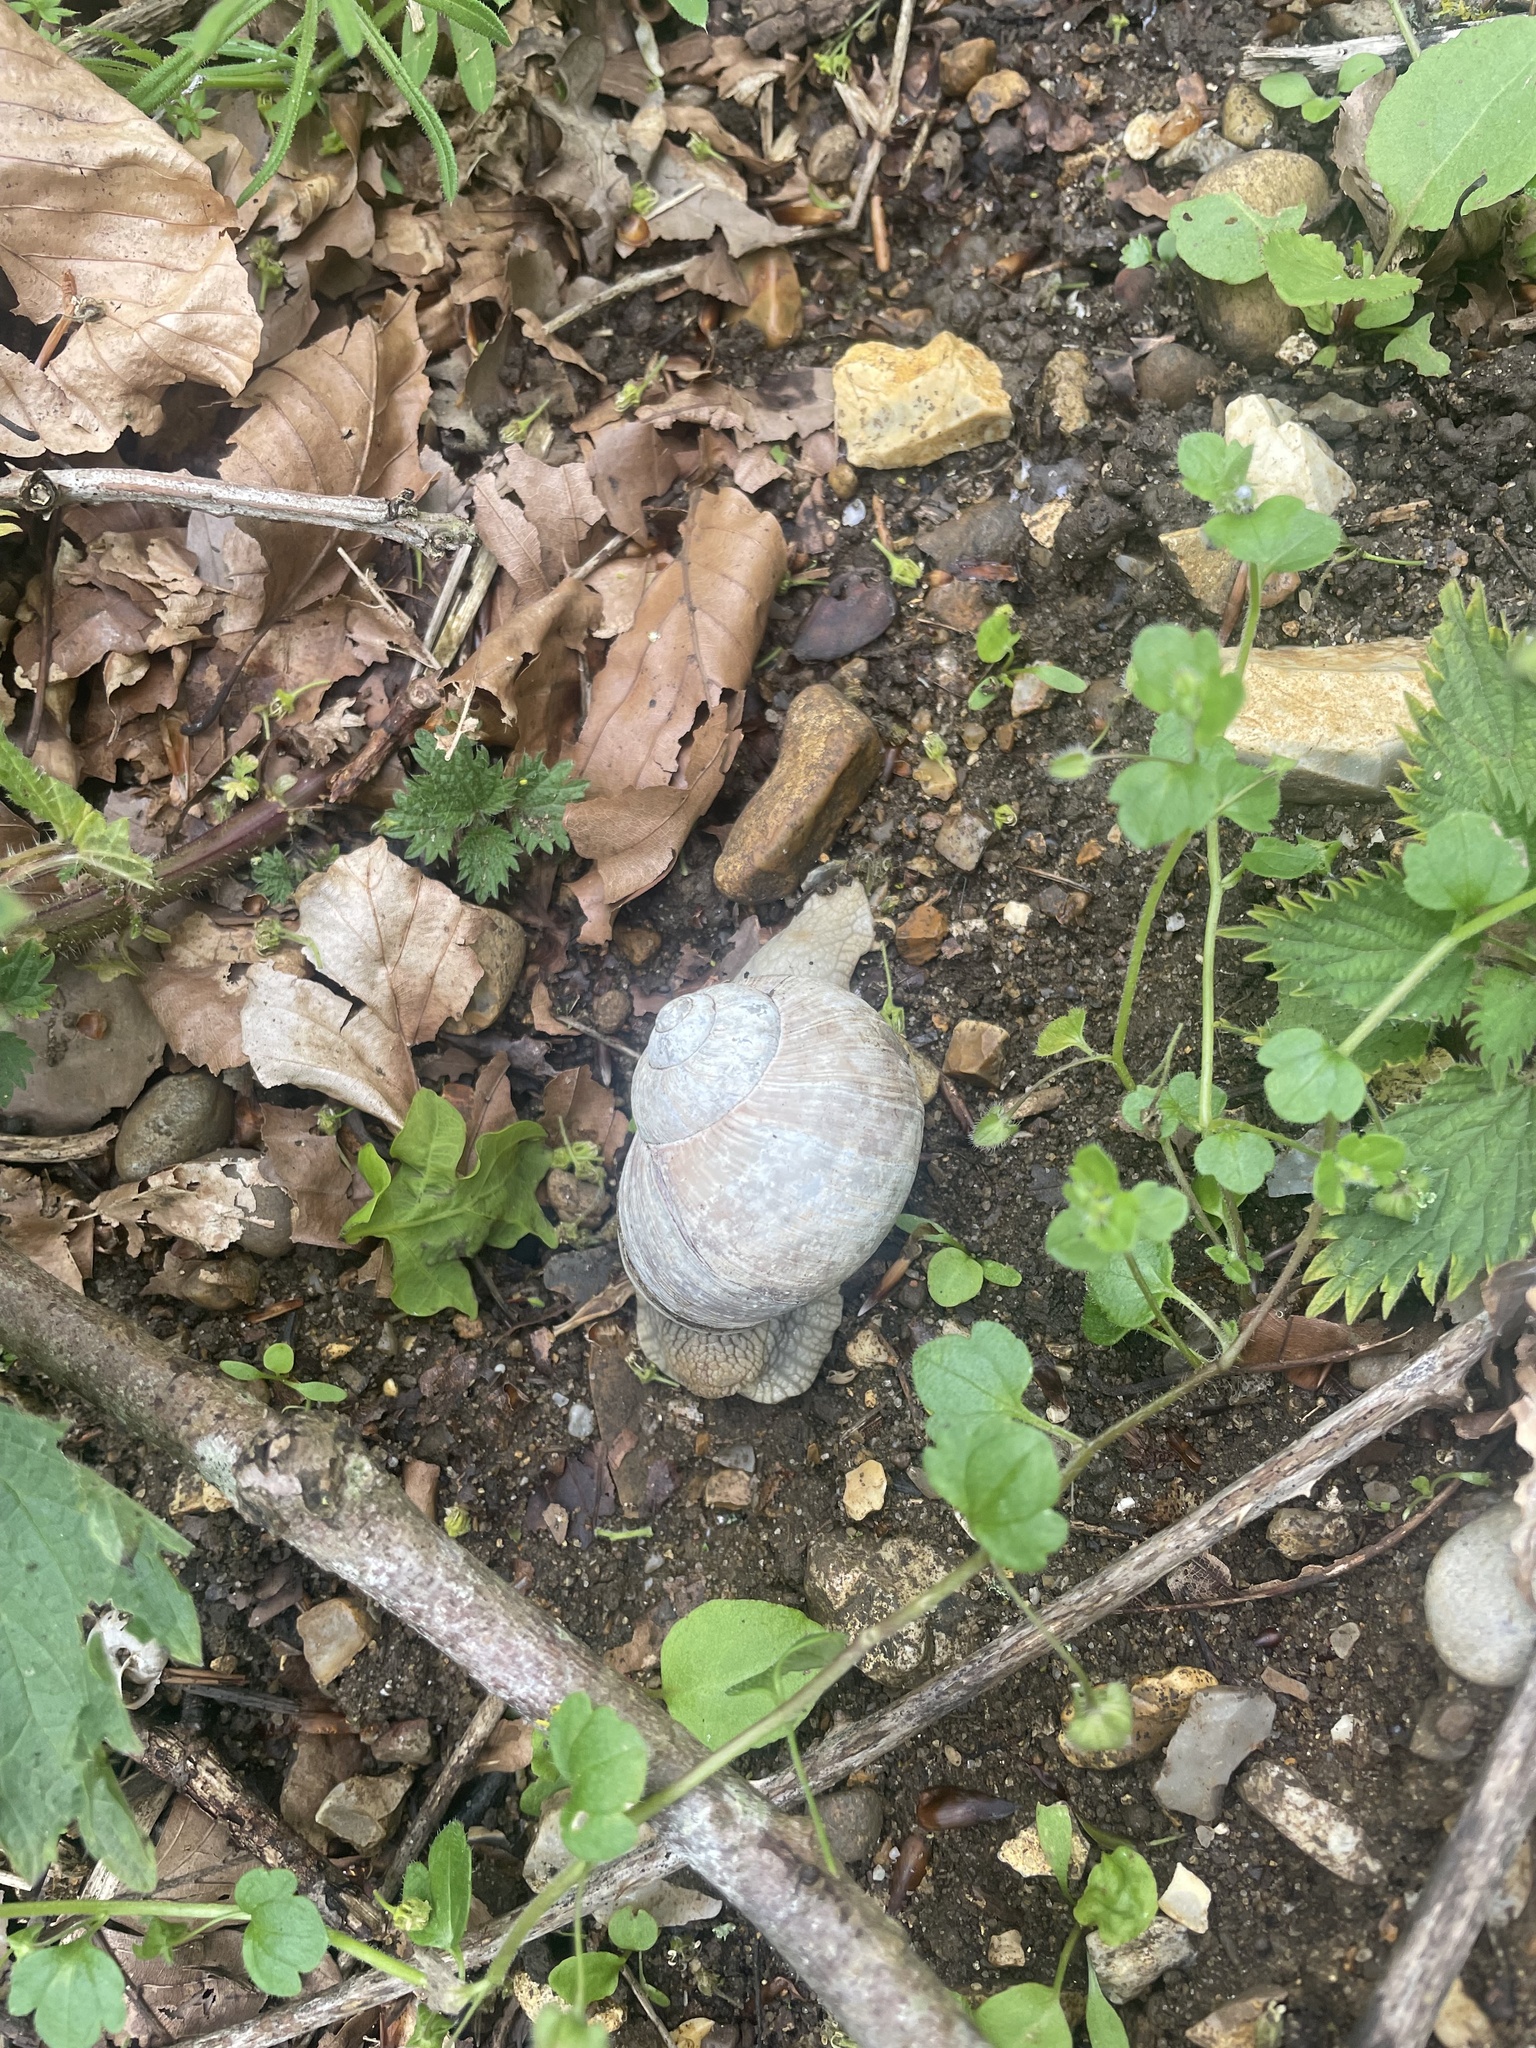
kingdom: Animalia
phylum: Mollusca
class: Gastropoda
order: Stylommatophora
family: Helicidae
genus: Helix
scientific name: Helix pomatia
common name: Roman snail
